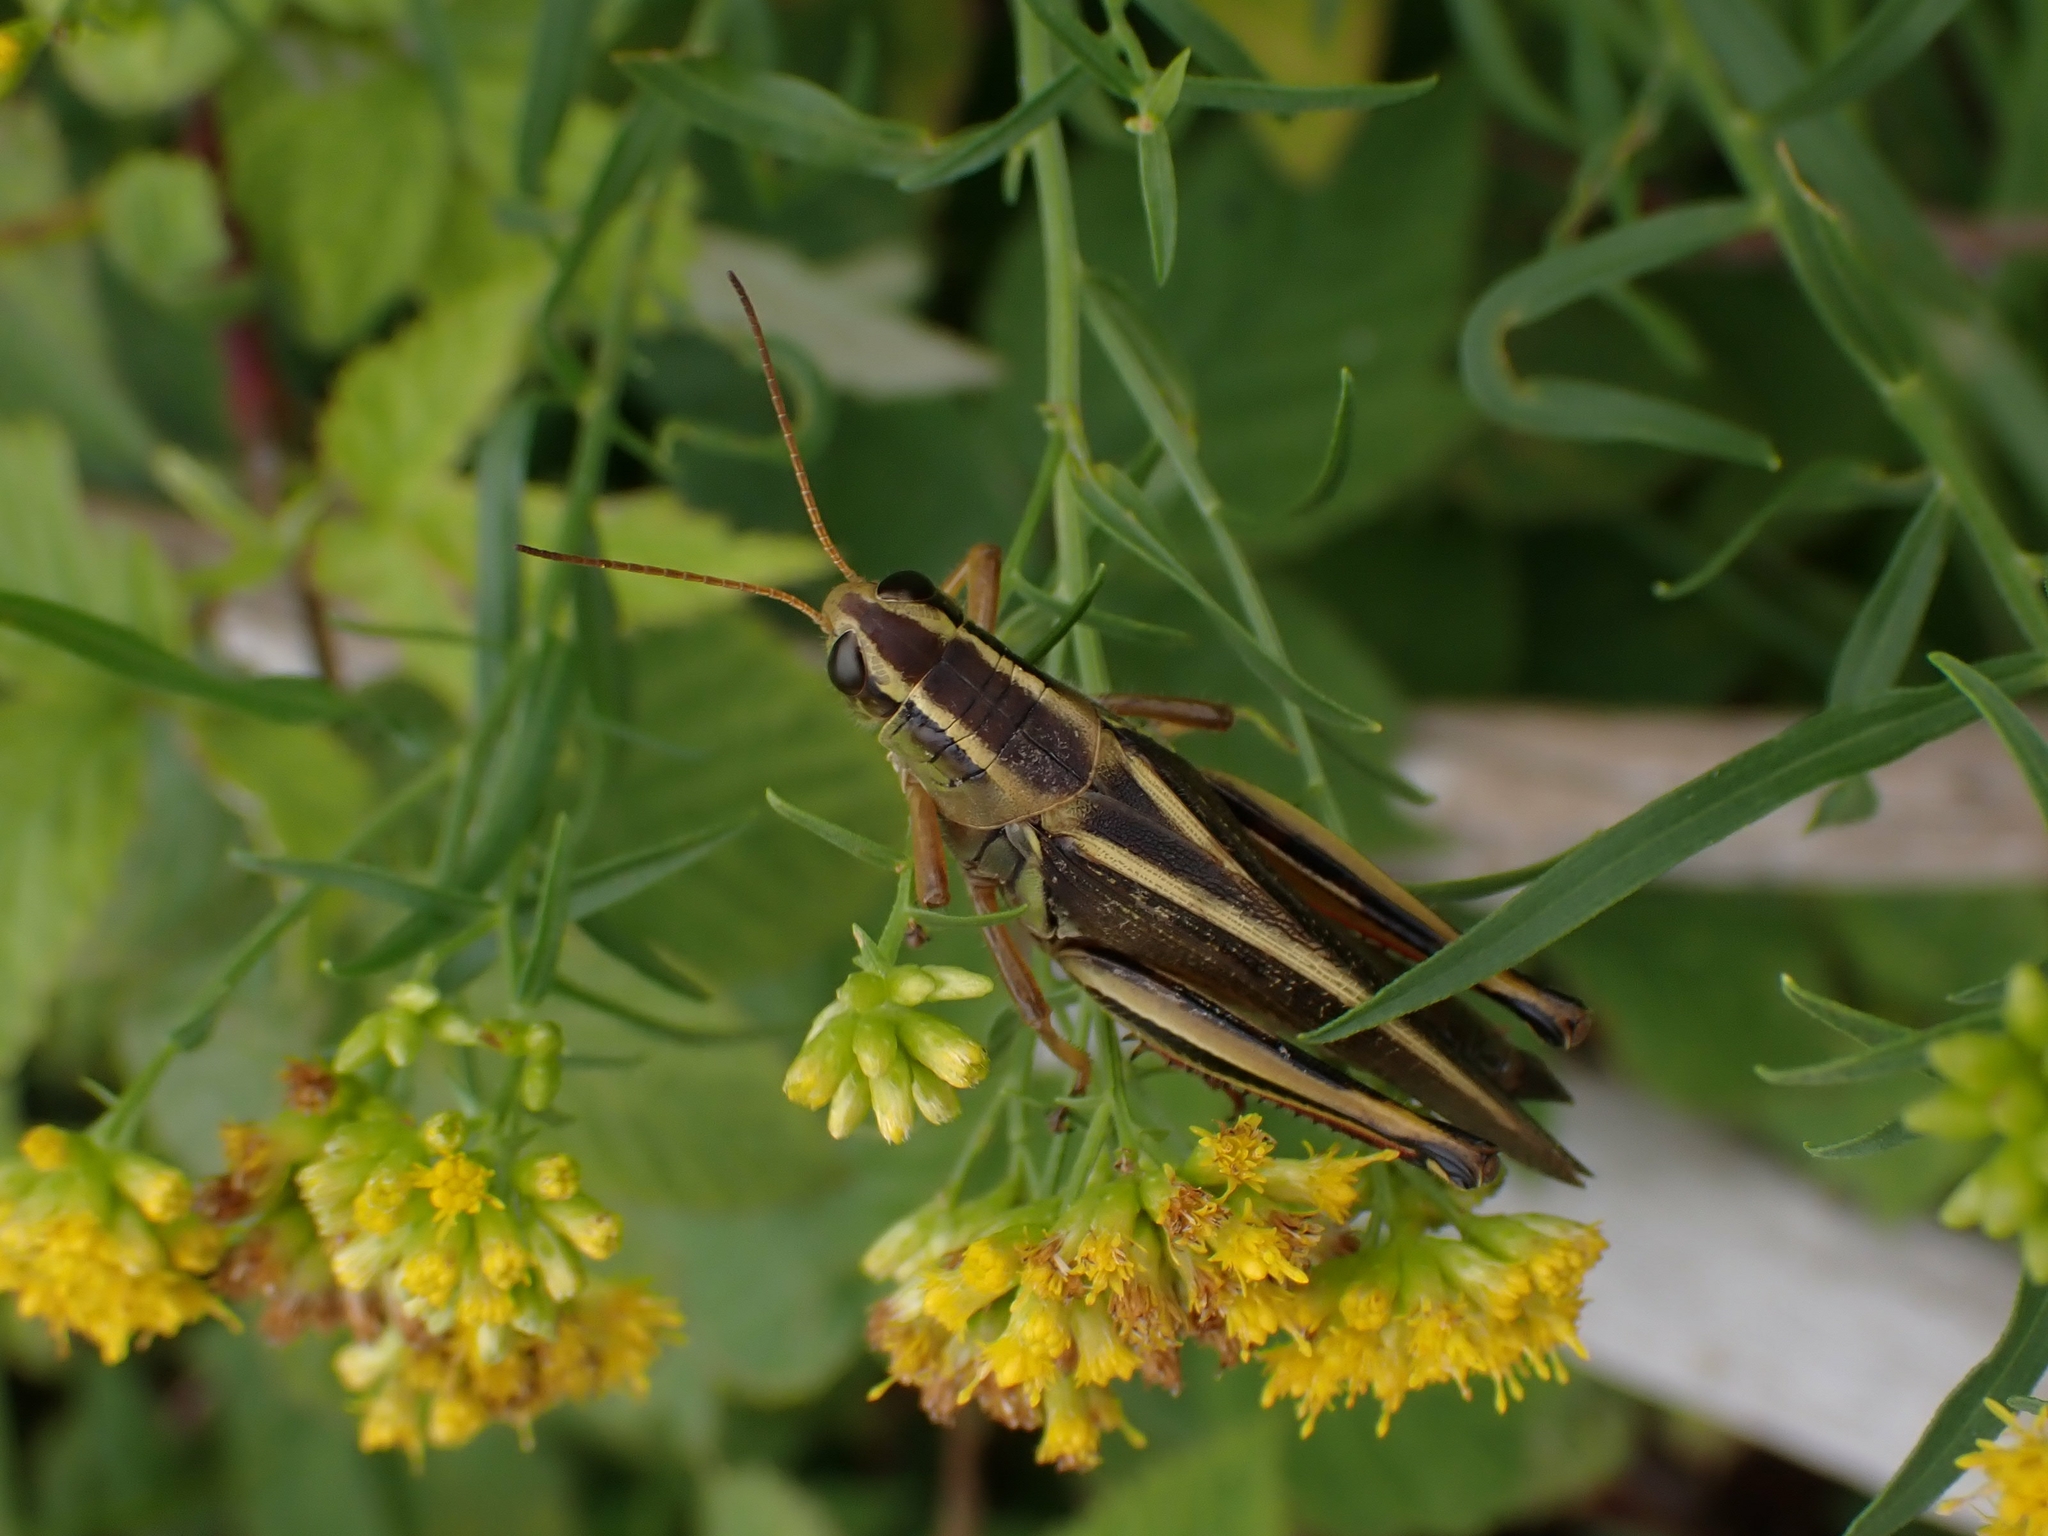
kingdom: Animalia
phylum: Arthropoda
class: Insecta
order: Orthoptera
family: Acrididae
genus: Melanoplus
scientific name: Melanoplus bivittatus
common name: Two-striped grasshopper
